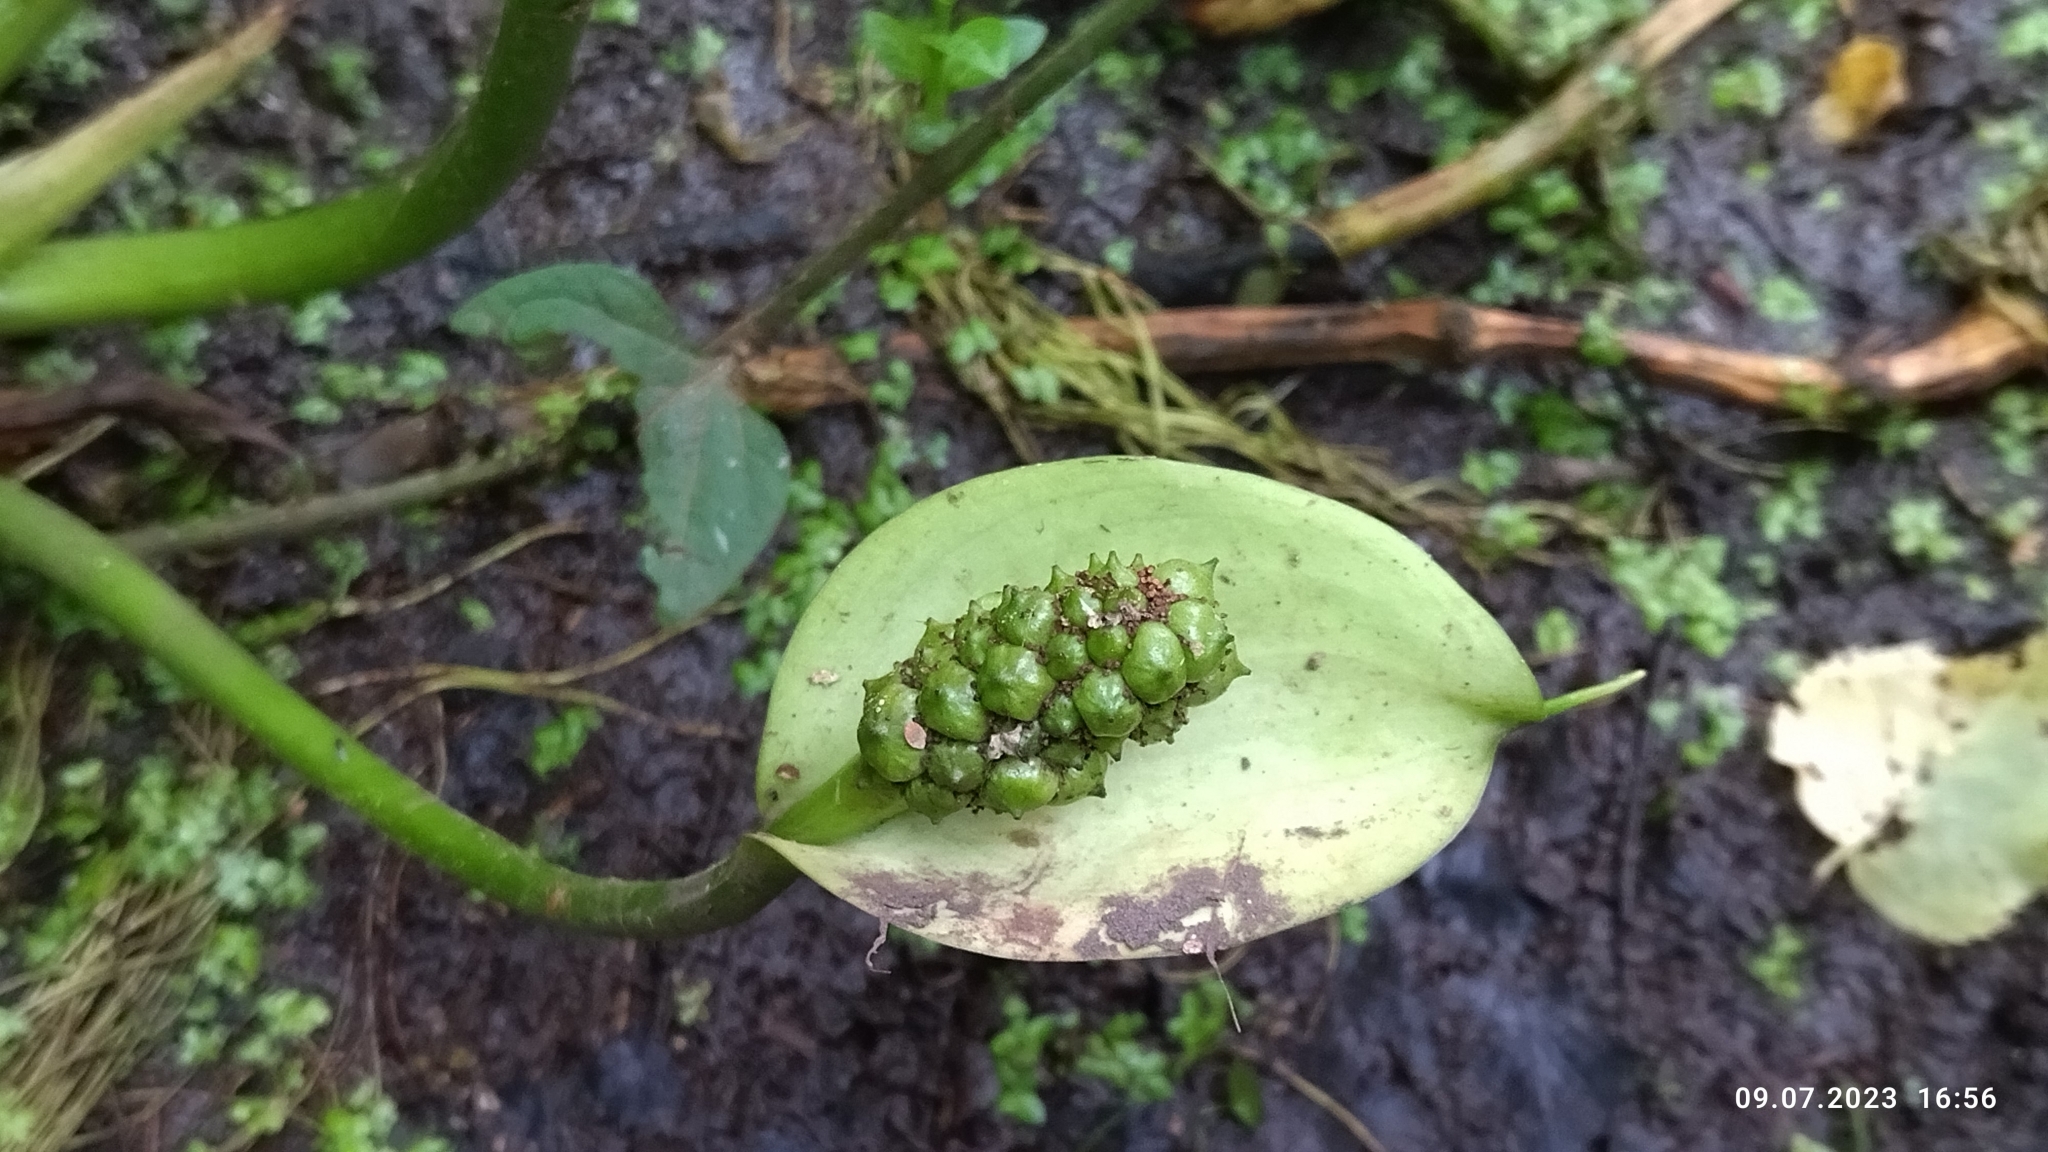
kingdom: Plantae
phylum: Tracheophyta
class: Liliopsida
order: Alismatales
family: Araceae
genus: Calla
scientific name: Calla palustris
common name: Bog arum
